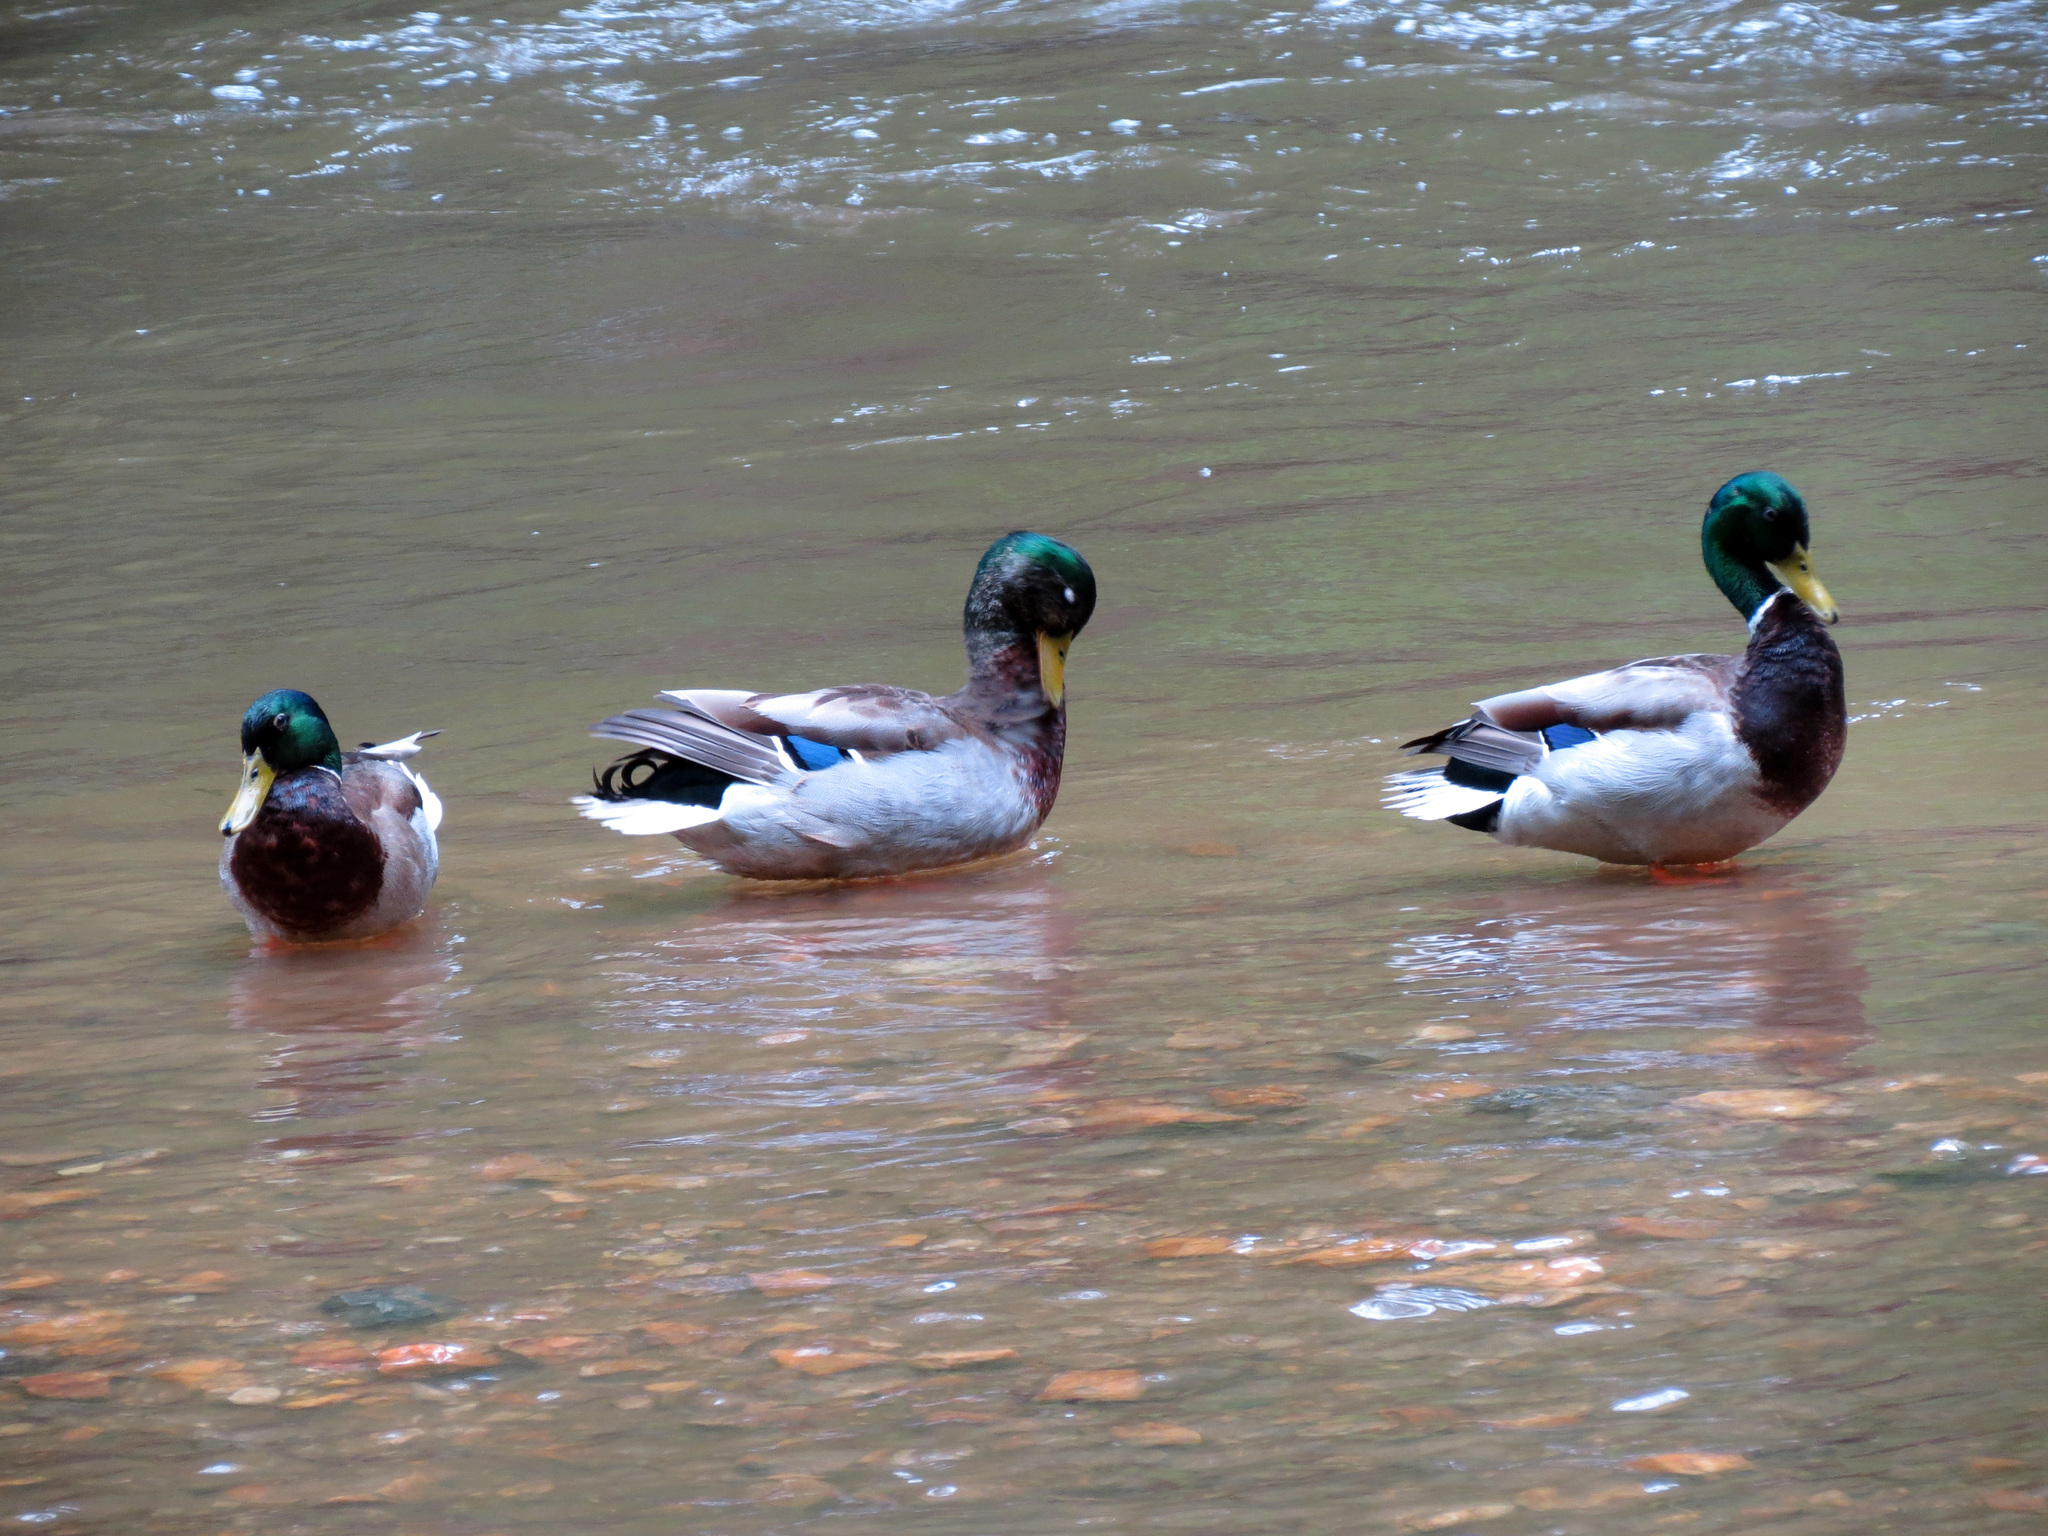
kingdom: Animalia
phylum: Chordata
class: Aves
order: Anseriformes
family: Anatidae
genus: Anas
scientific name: Anas platyrhynchos
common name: Mallard
